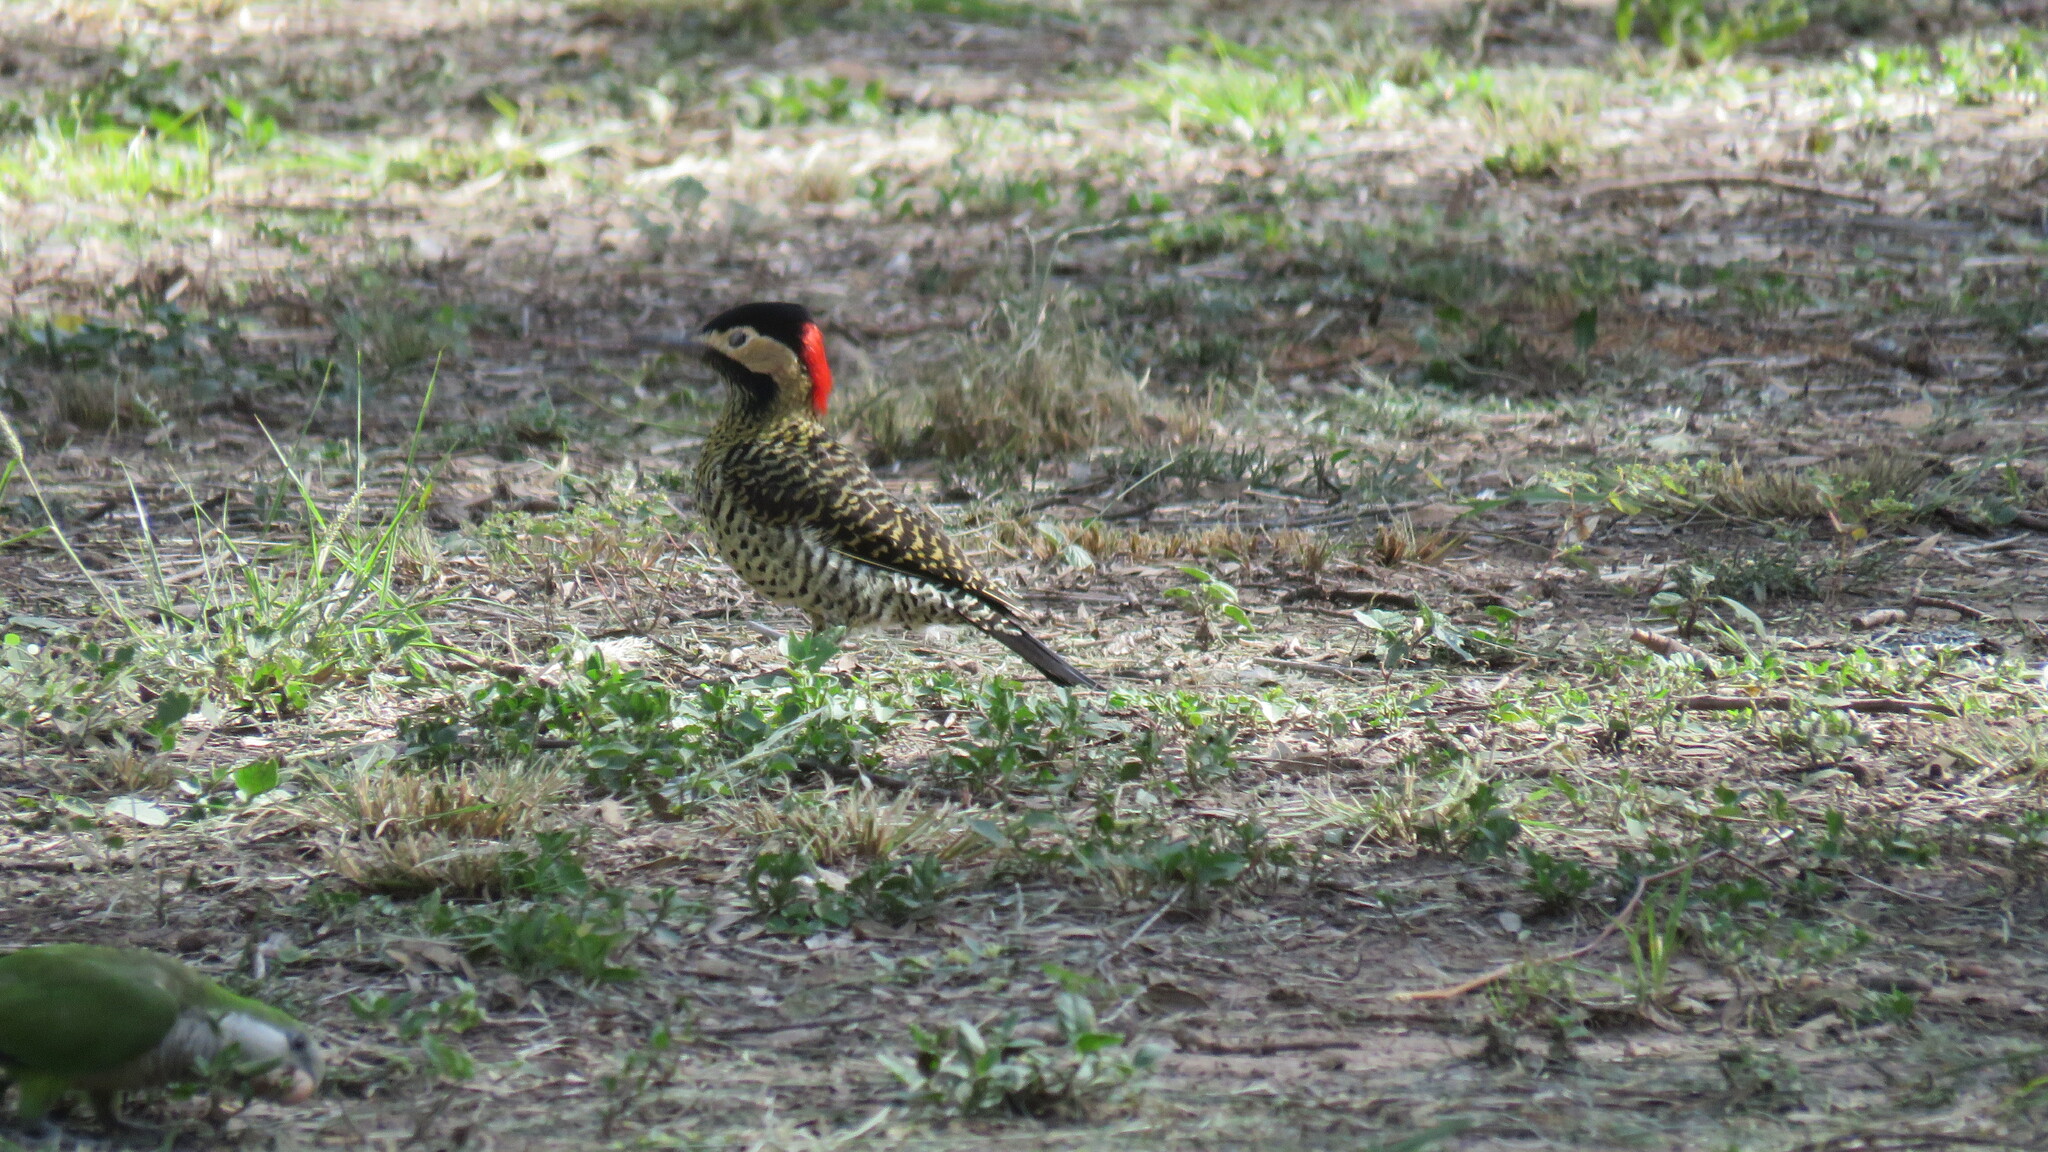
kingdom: Animalia
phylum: Chordata
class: Aves
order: Piciformes
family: Picidae
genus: Colaptes
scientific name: Colaptes melanochloros
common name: Green-barred woodpecker
